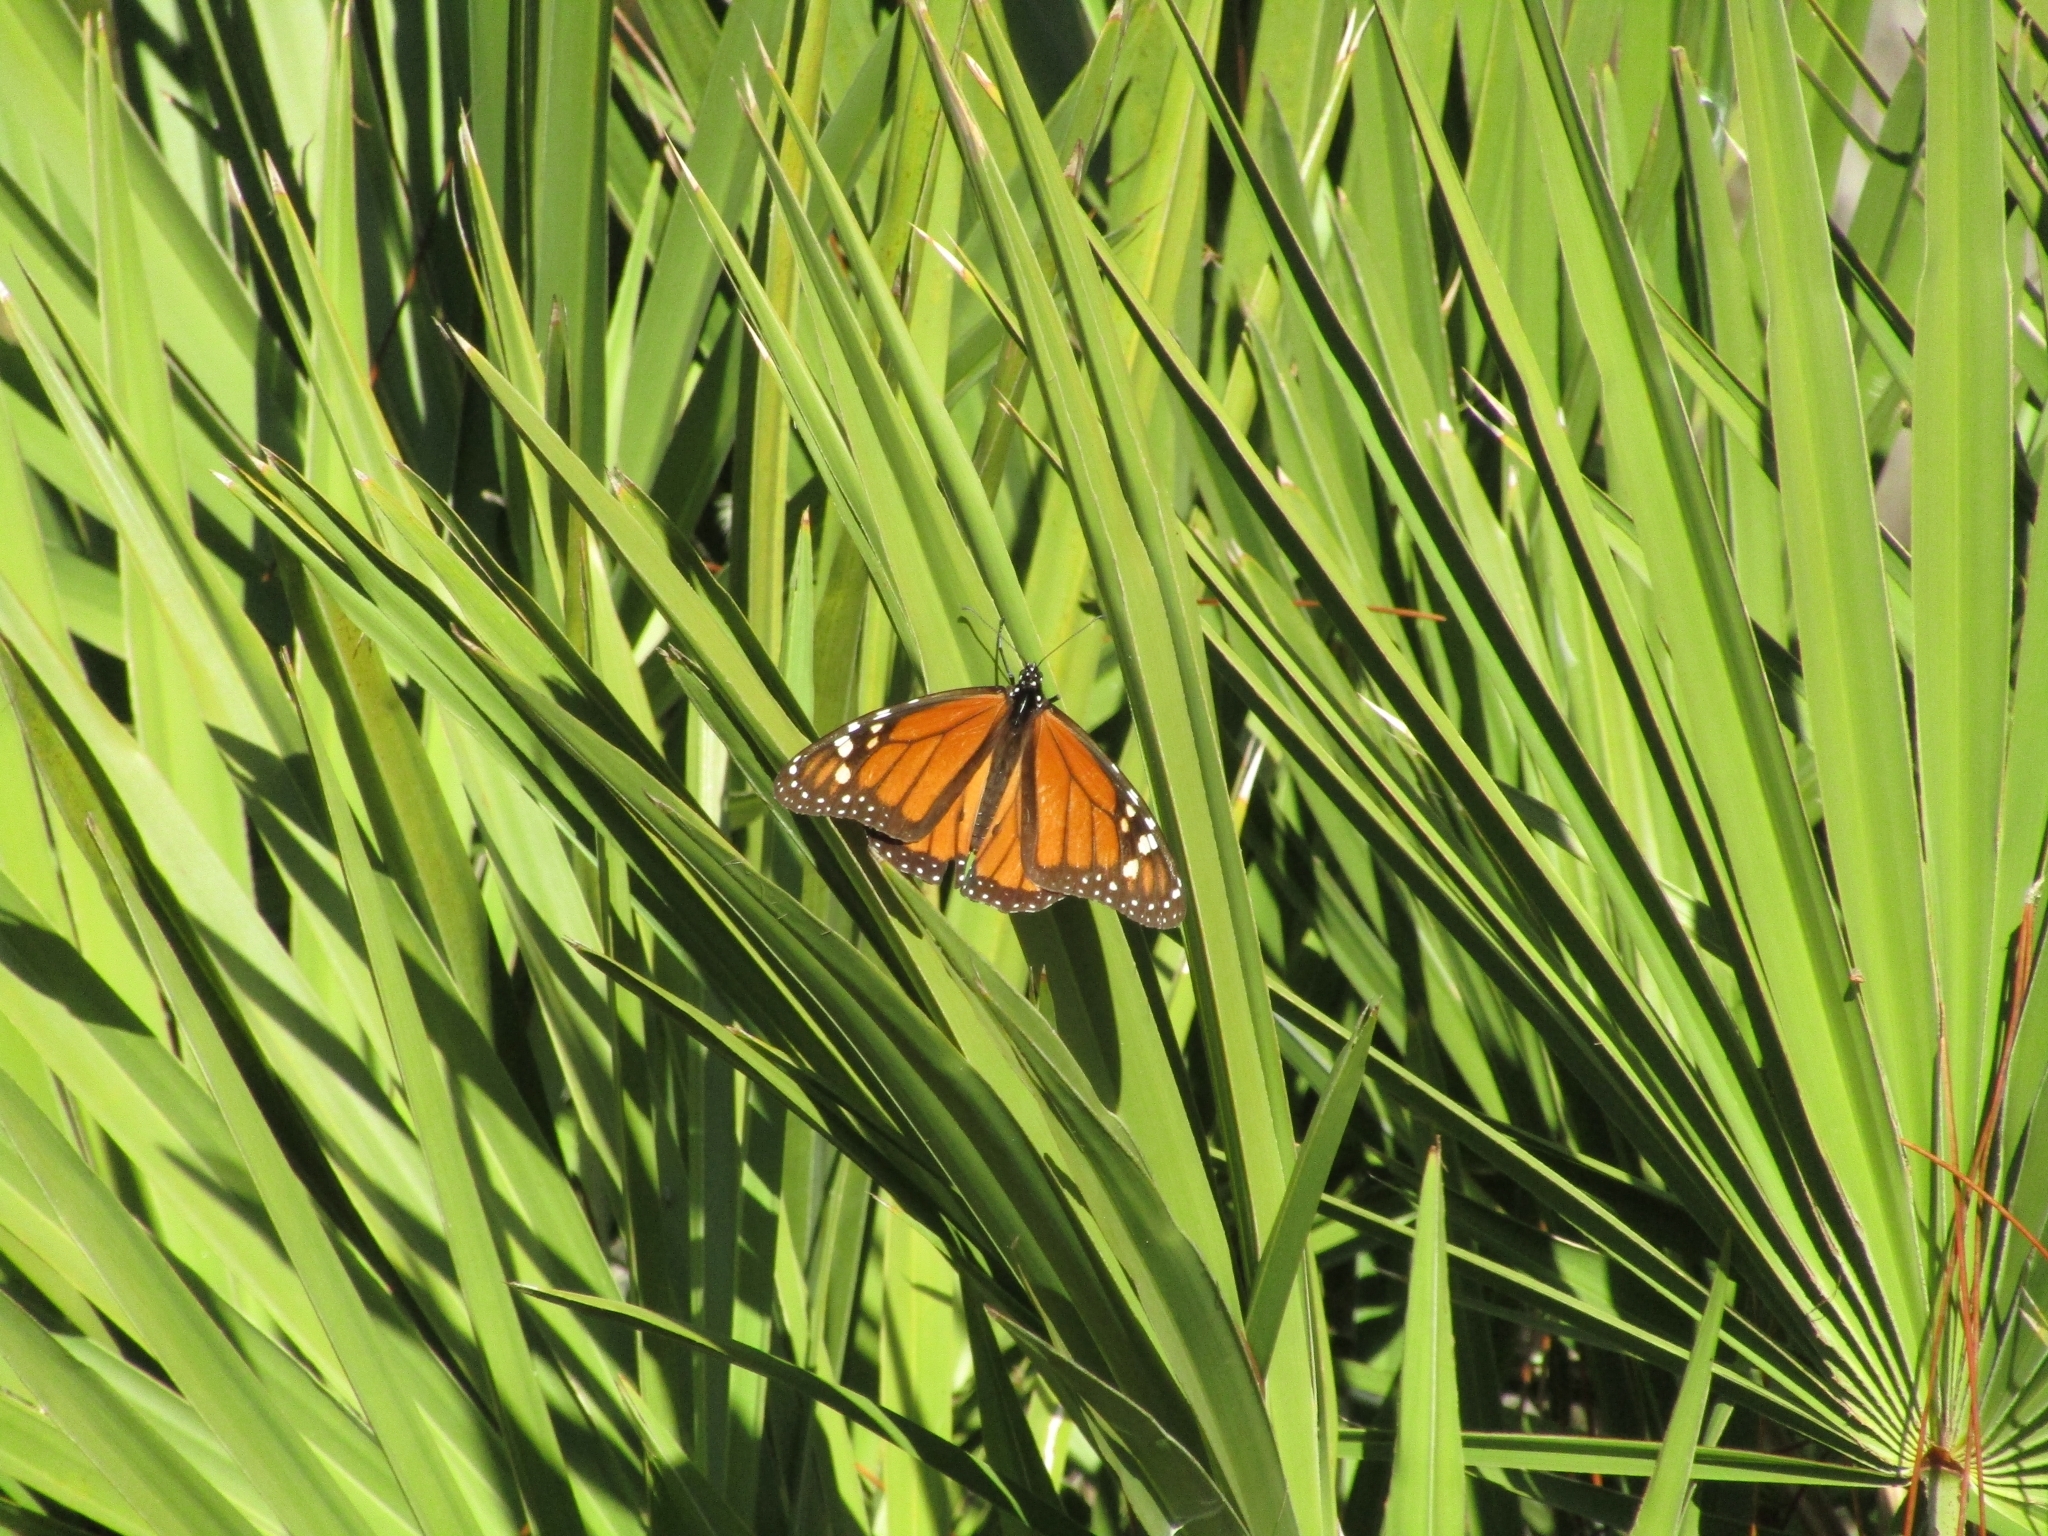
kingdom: Animalia
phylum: Arthropoda
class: Insecta
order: Lepidoptera
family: Nymphalidae
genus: Danaus
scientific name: Danaus plexippus
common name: Monarch
